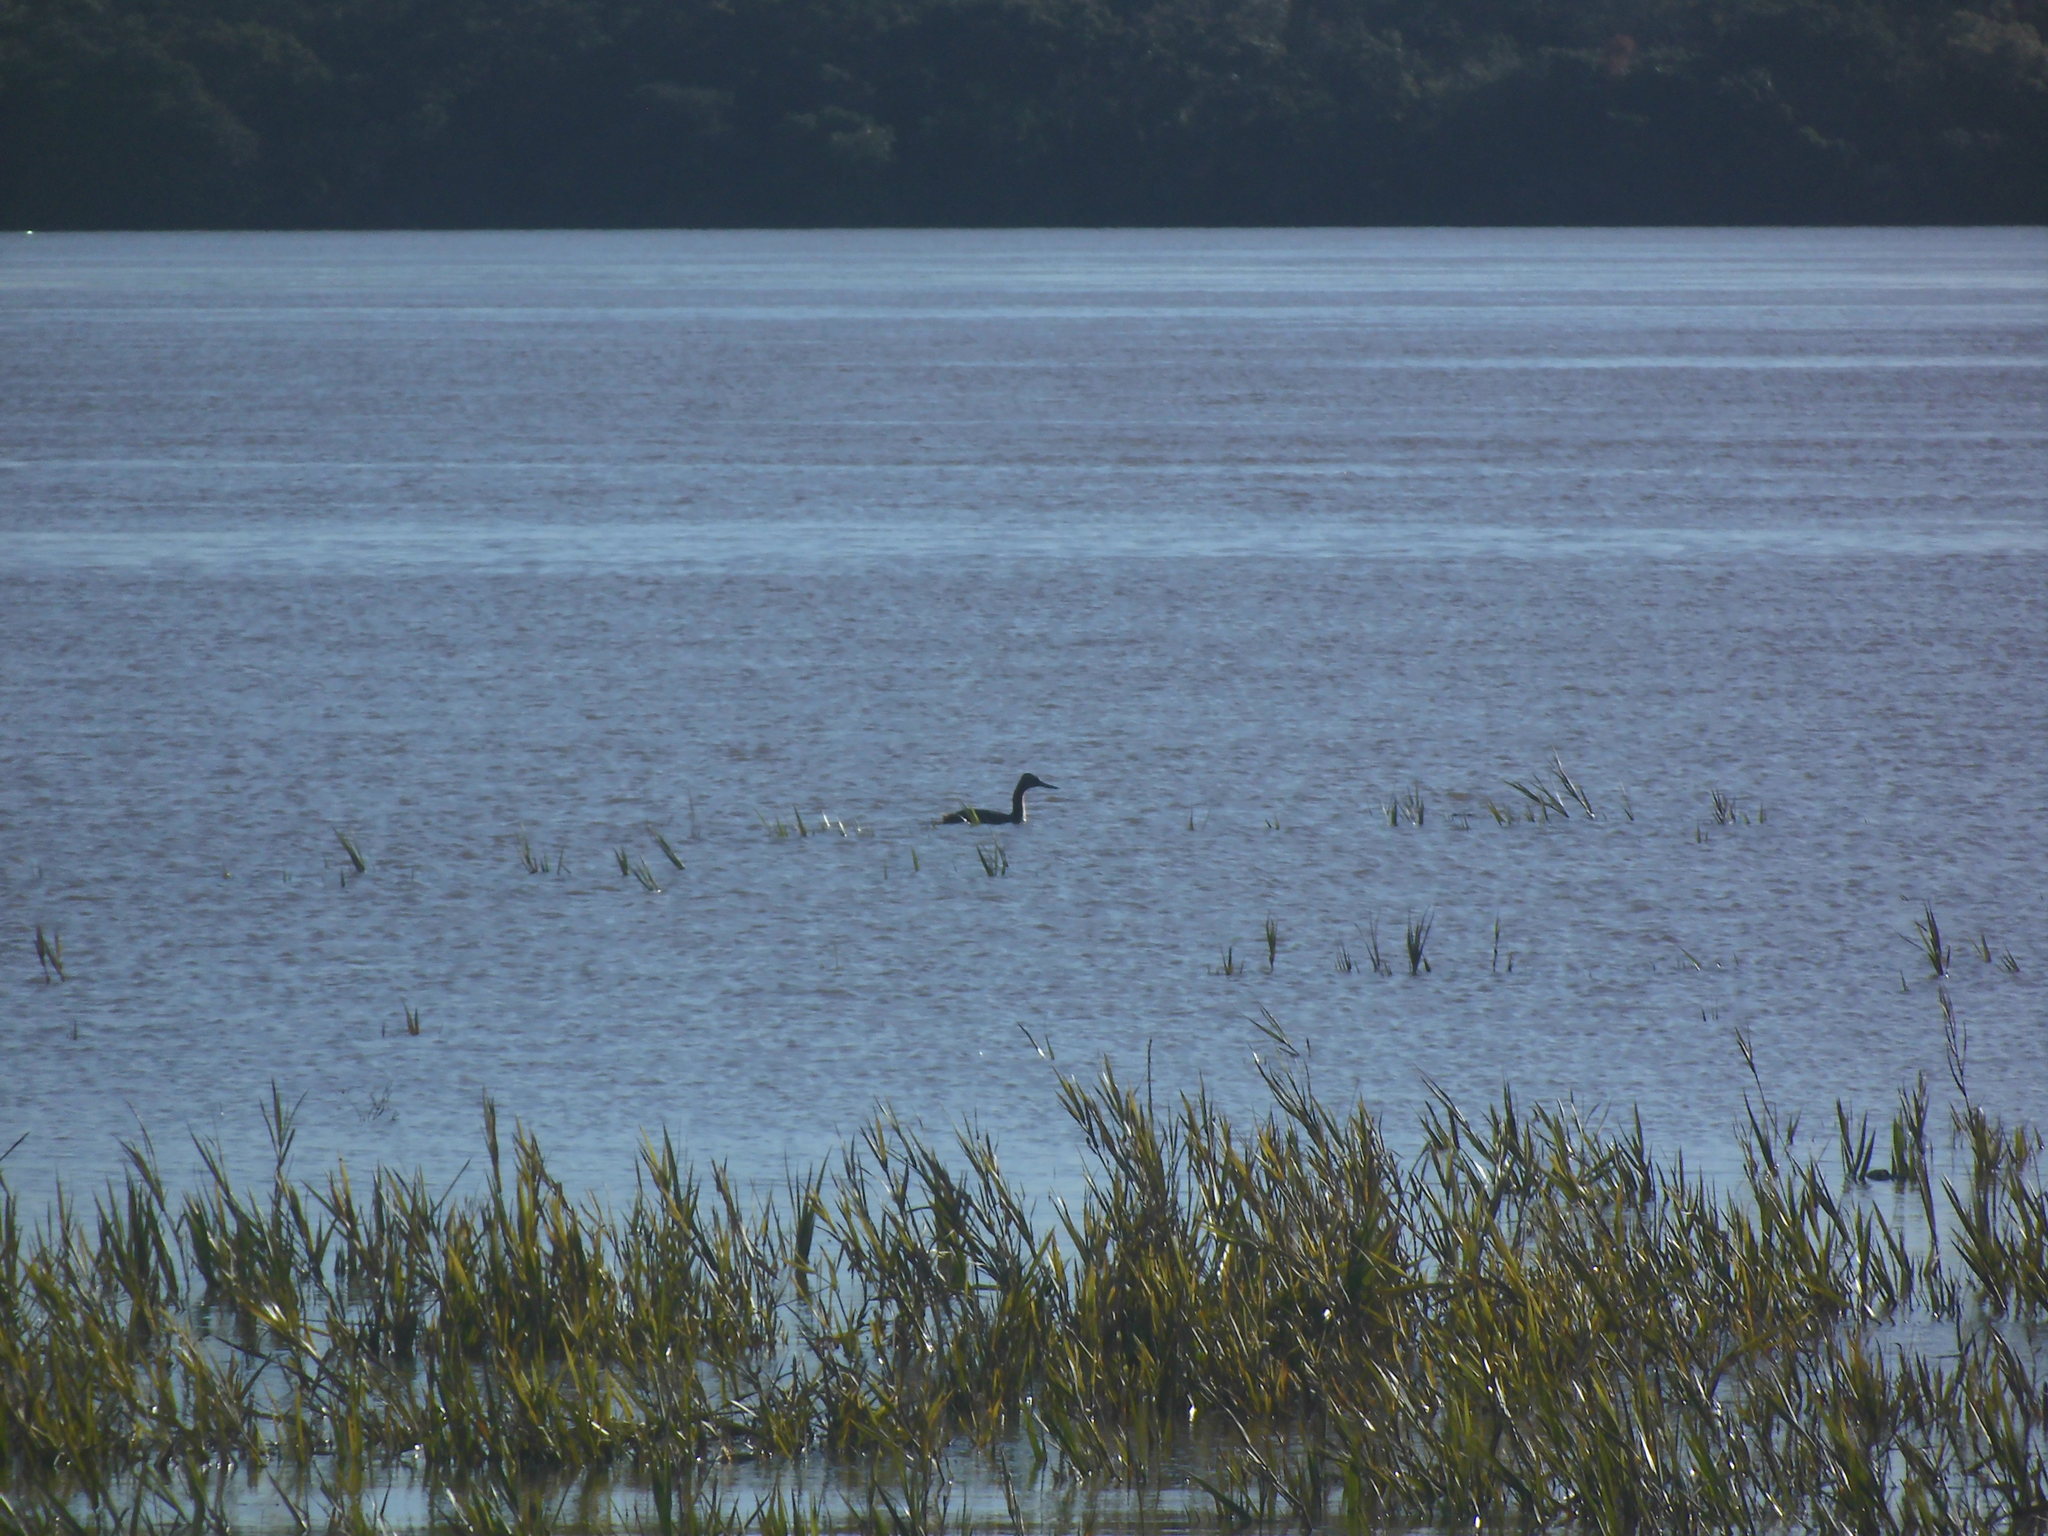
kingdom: Animalia
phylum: Chordata
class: Aves
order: Podicipediformes
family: Podicipedidae
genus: Podiceps
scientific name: Podiceps major
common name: Great grebe
